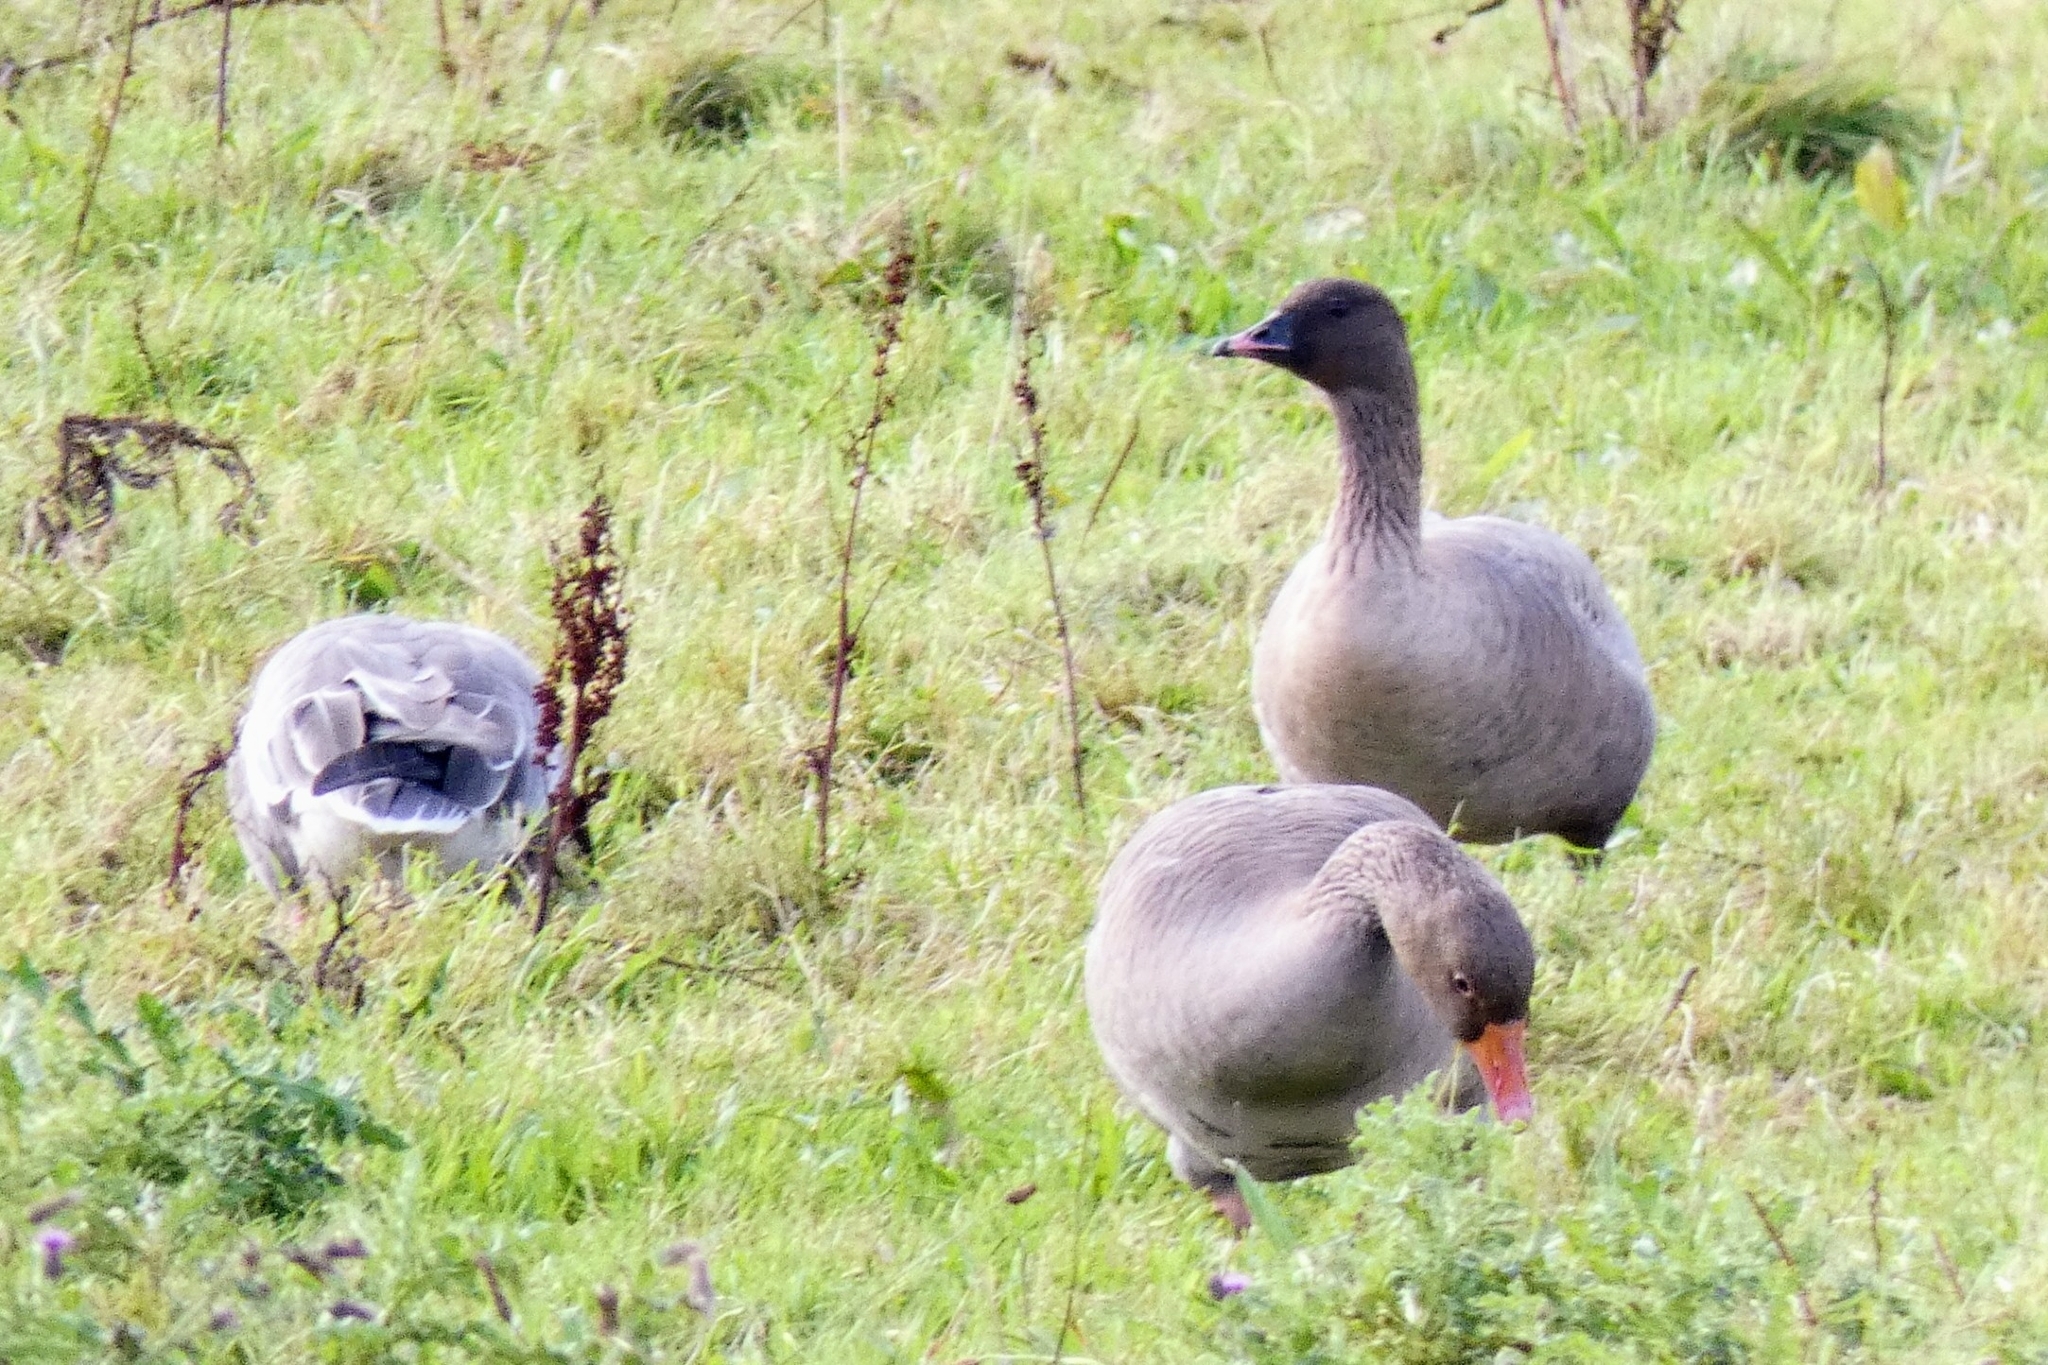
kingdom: Animalia
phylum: Chordata
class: Aves
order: Anseriformes
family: Anatidae
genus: Anser
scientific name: Anser brachyrhynchus
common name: Pink-footed goose
